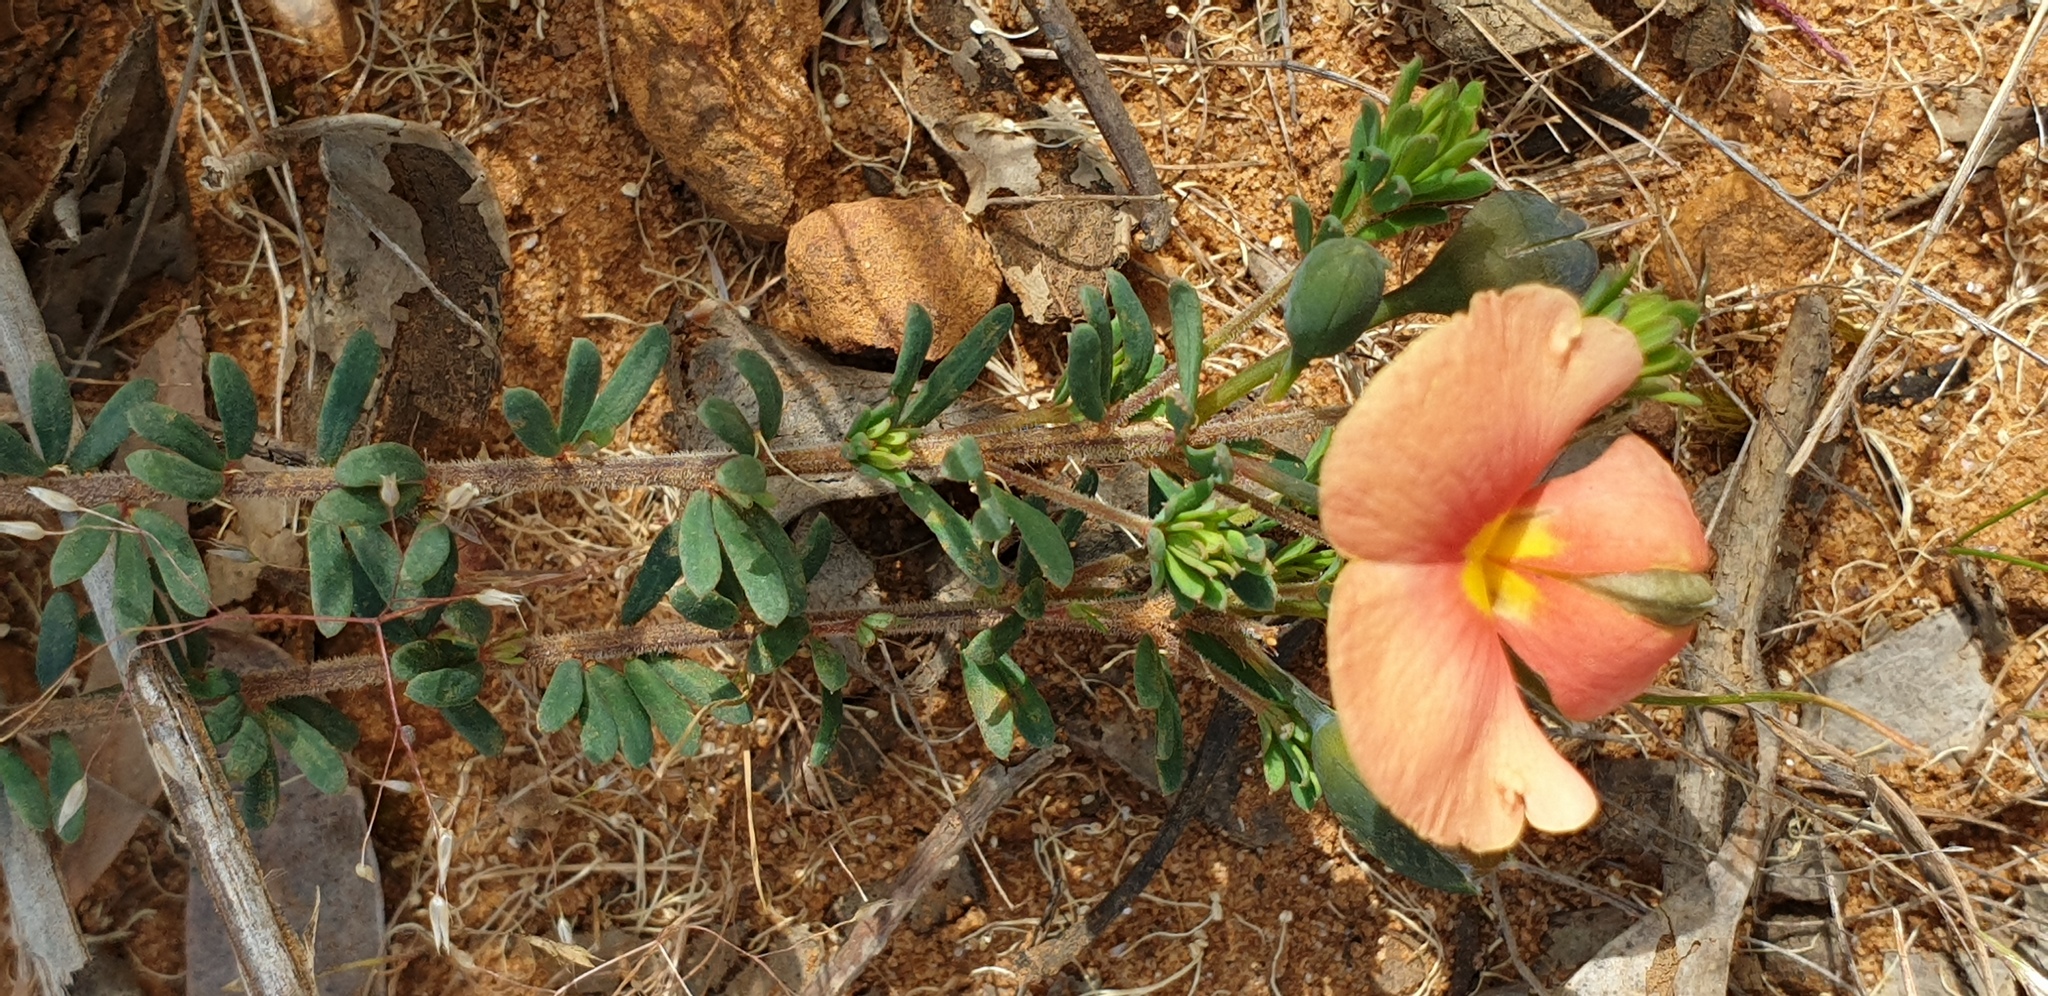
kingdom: Plantae
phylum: Tracheophyta
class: Magnoliopsida
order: Fabales
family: Fabaceae
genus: Gompholobium
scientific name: Gompholobium ecostatum
